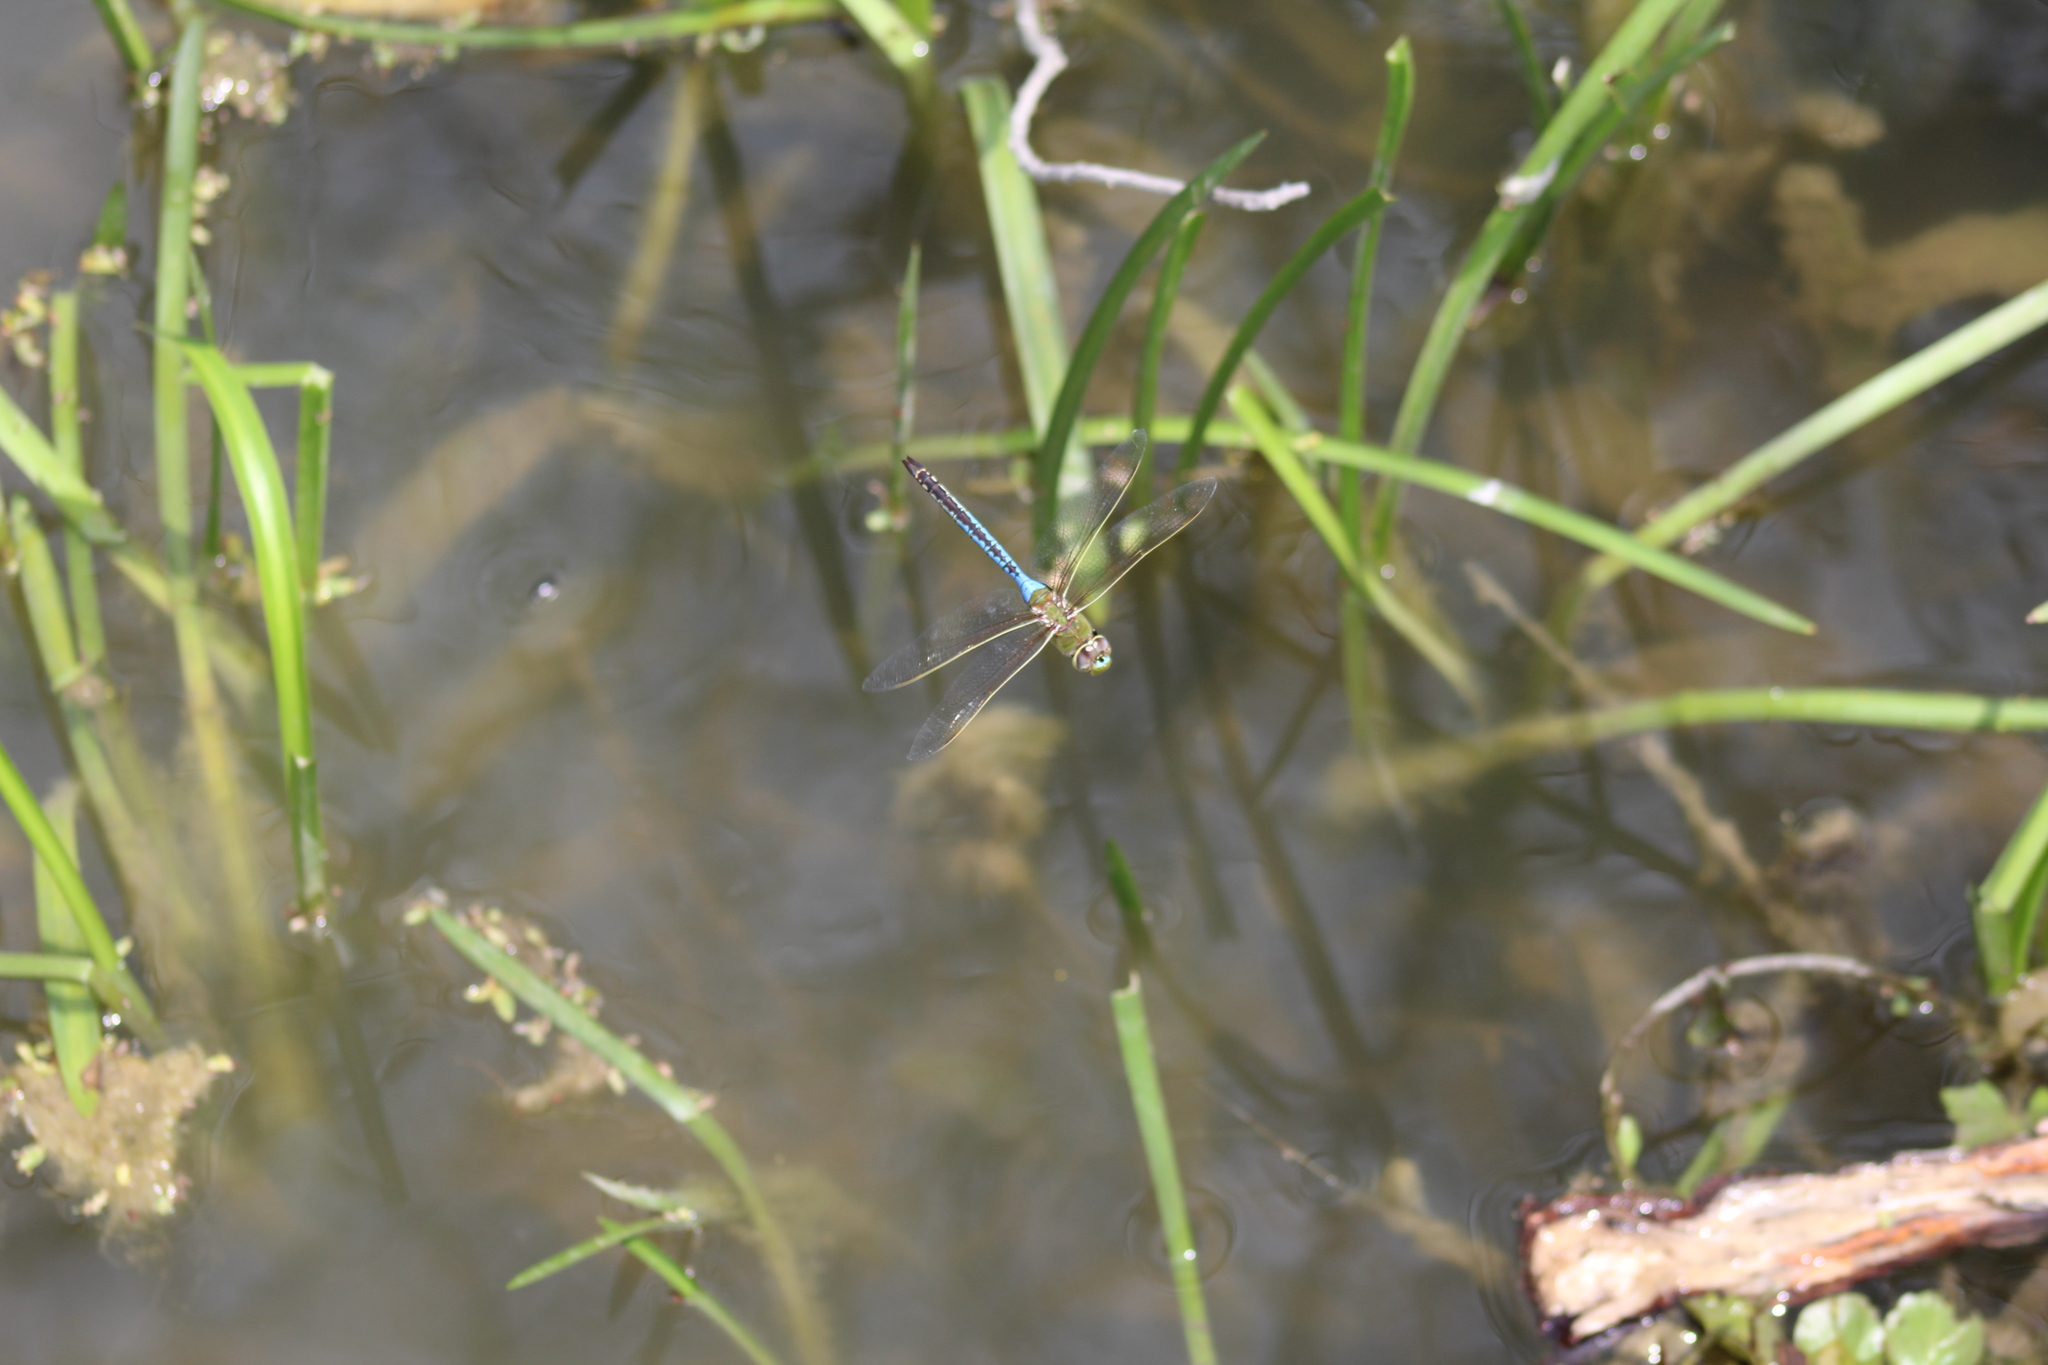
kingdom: Animalia
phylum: Arthropoda
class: Insecta
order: Odonata
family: Aeshnidae
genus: Anax
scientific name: Anax junius
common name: Common green darner
